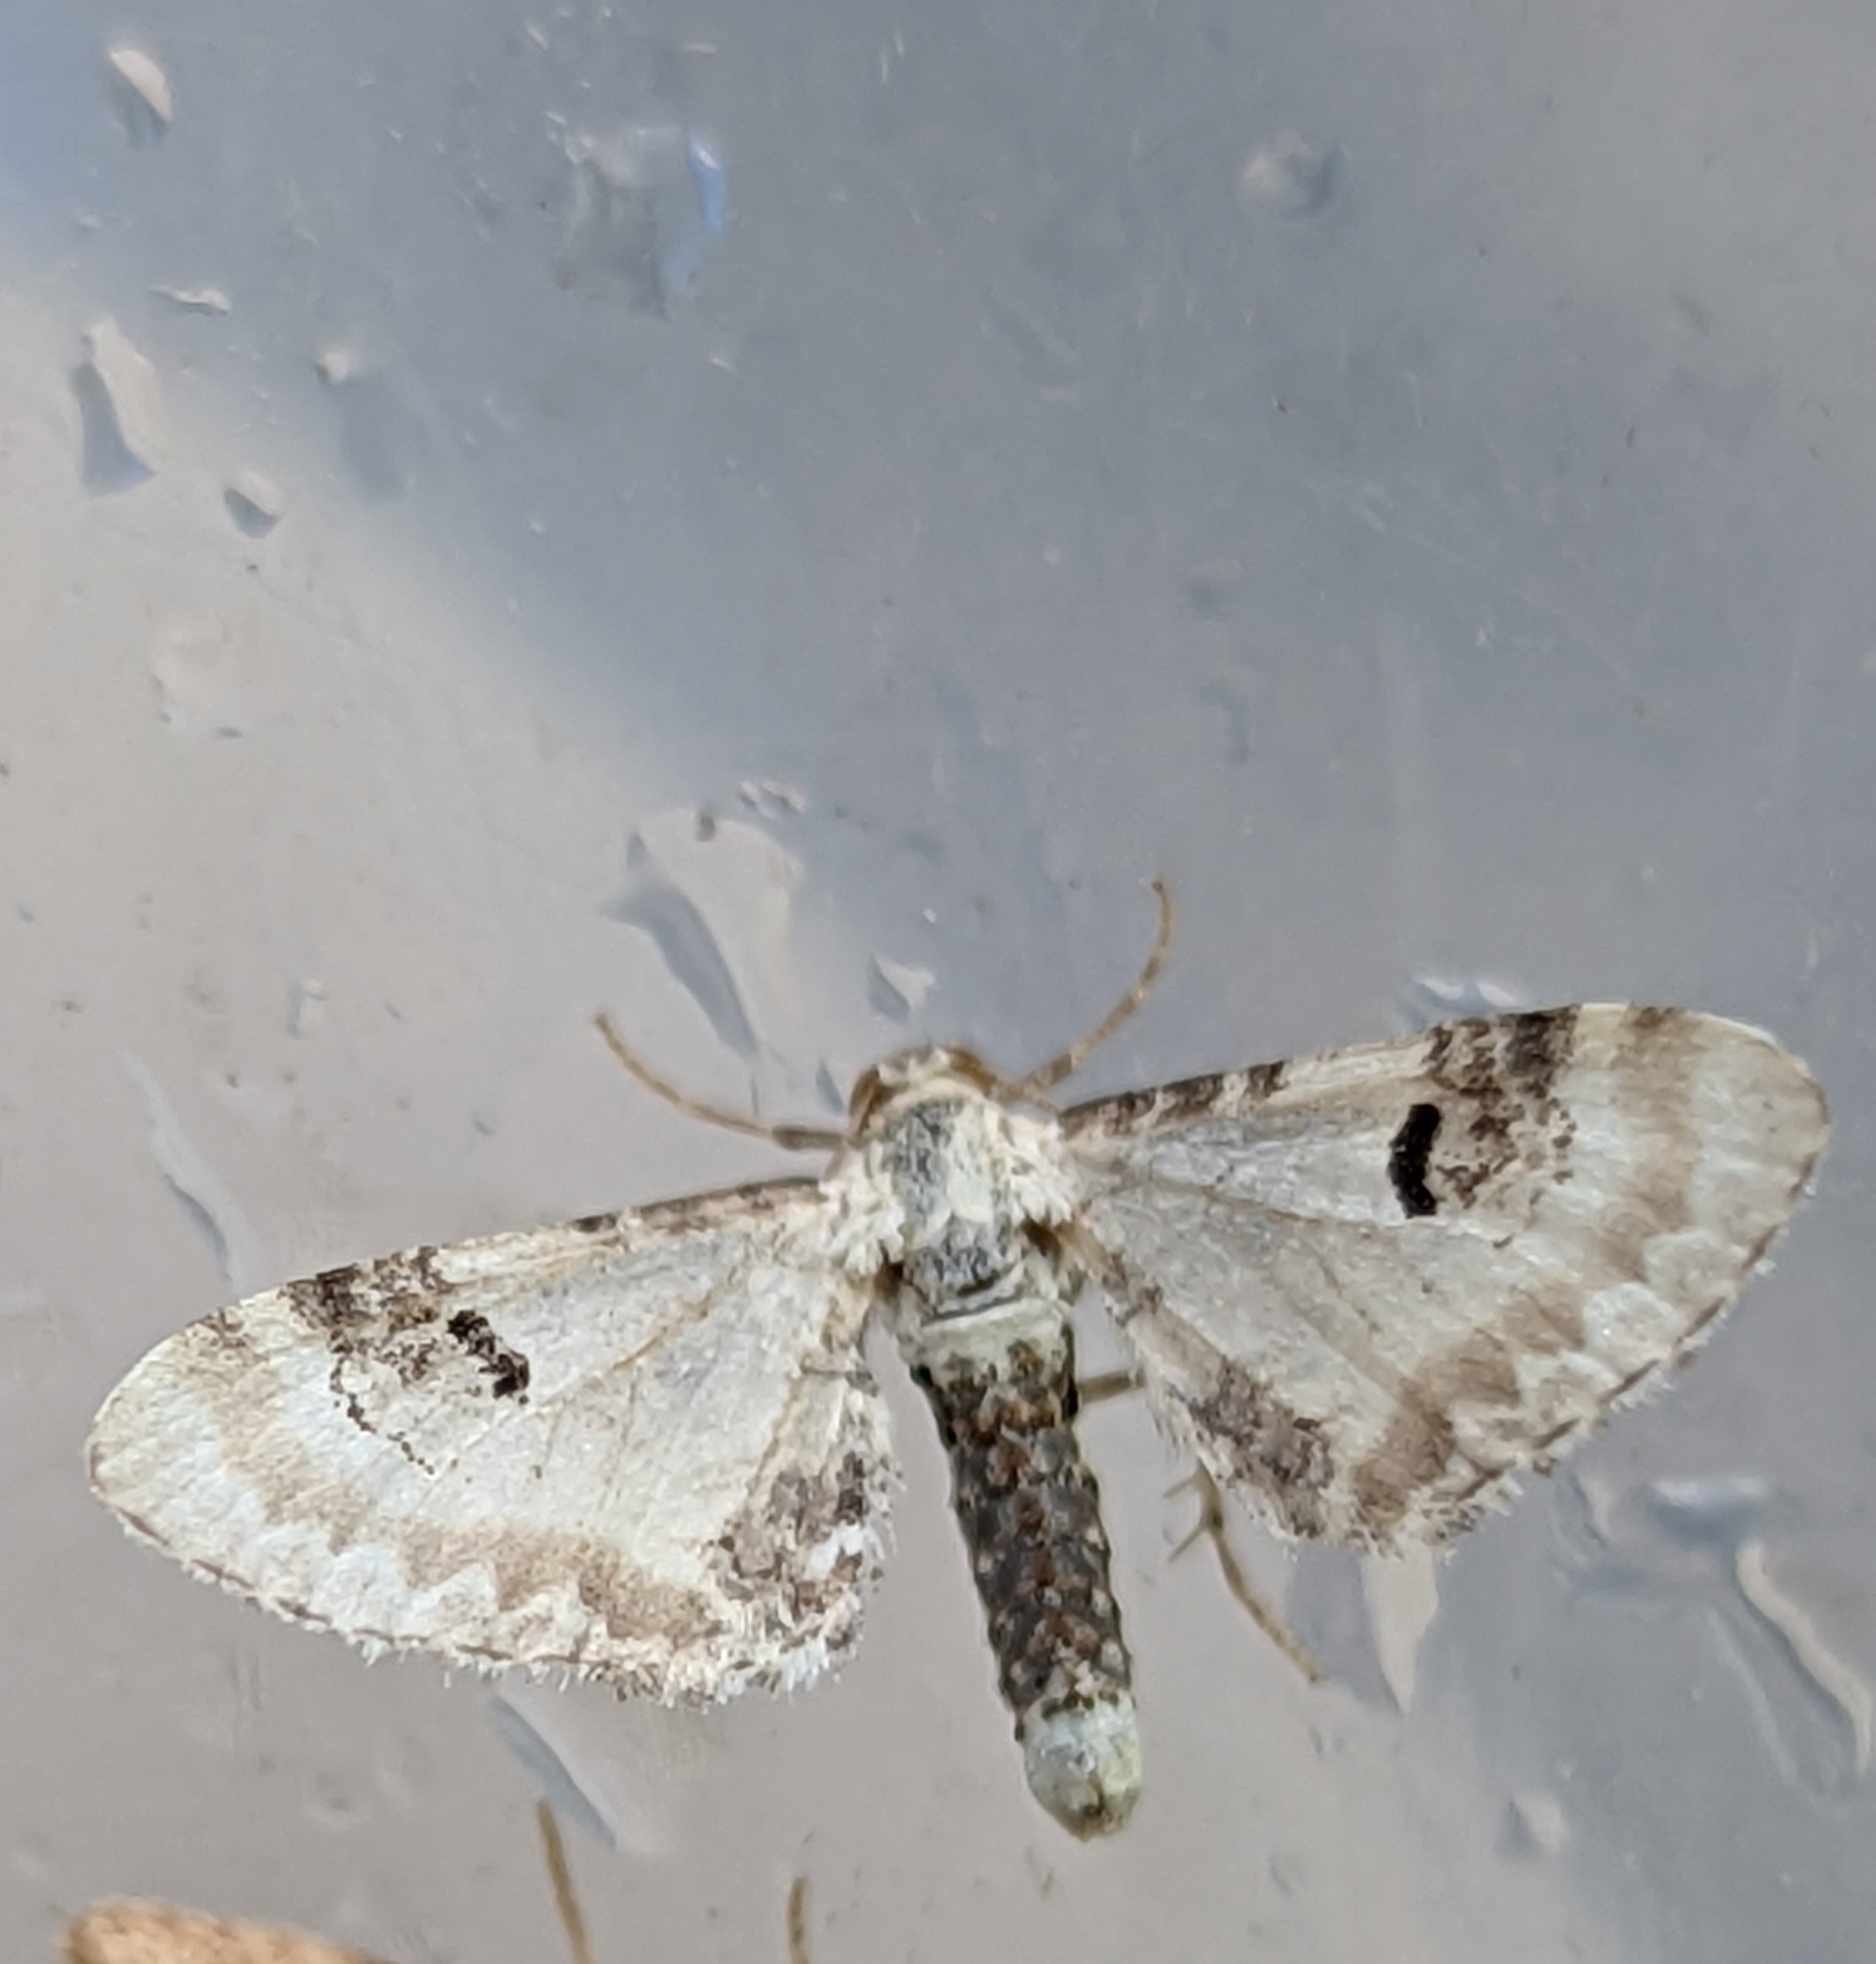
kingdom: Animalia
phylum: Arthropoda
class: Insecta
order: Lepidoptera
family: Geometridae
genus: Eupithecia
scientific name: Eupithecia centaureata
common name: Lime-speck pug
